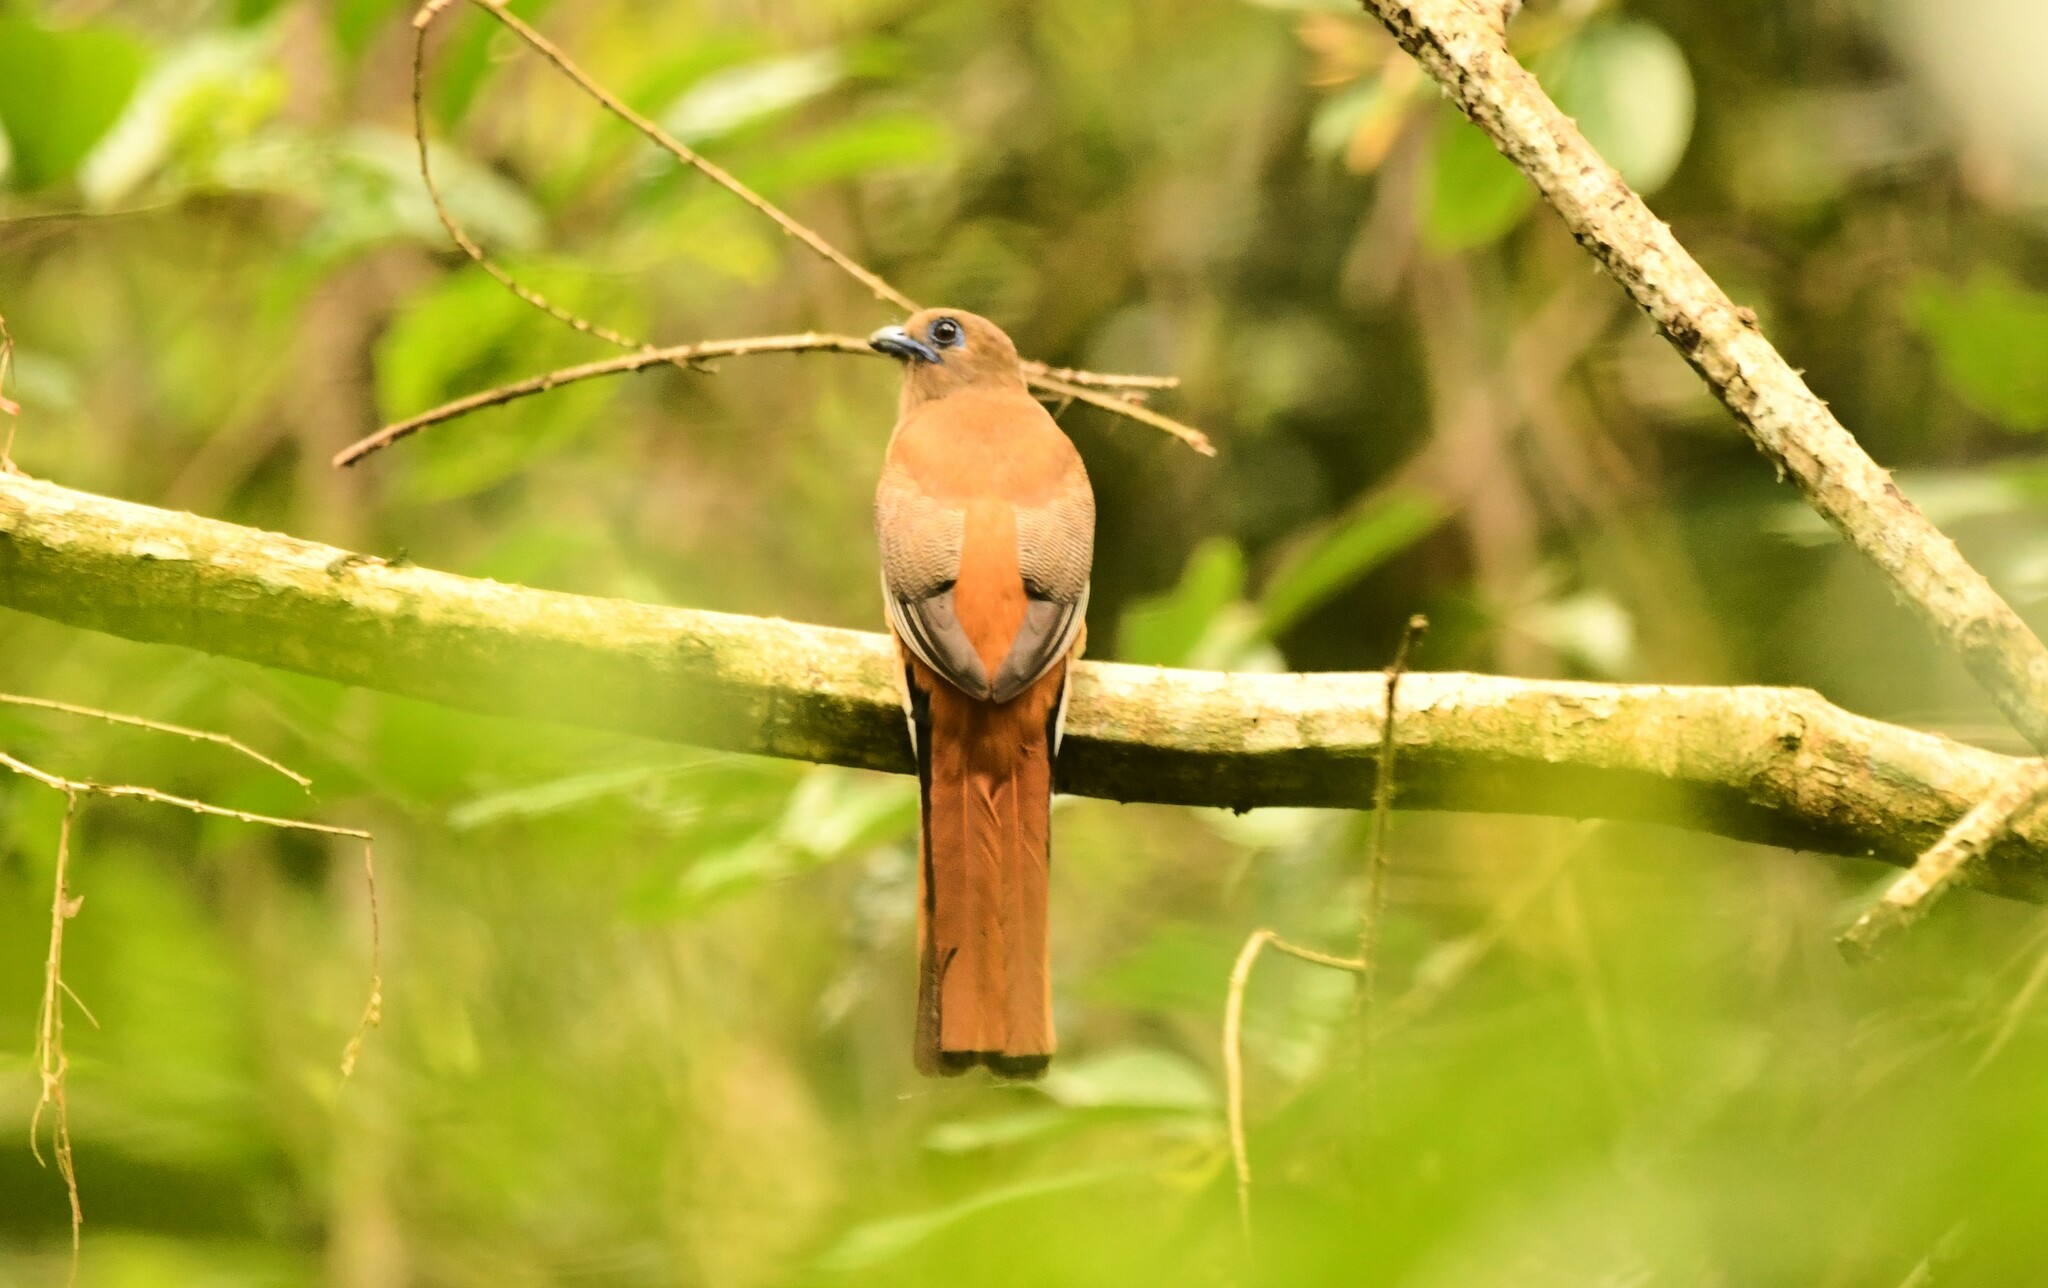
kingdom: Animalia
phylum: Chordata
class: Aves
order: Trogoniformes
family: Trogonidae
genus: Harpactes
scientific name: Harpactes fasciatus
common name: Malabar trogon
